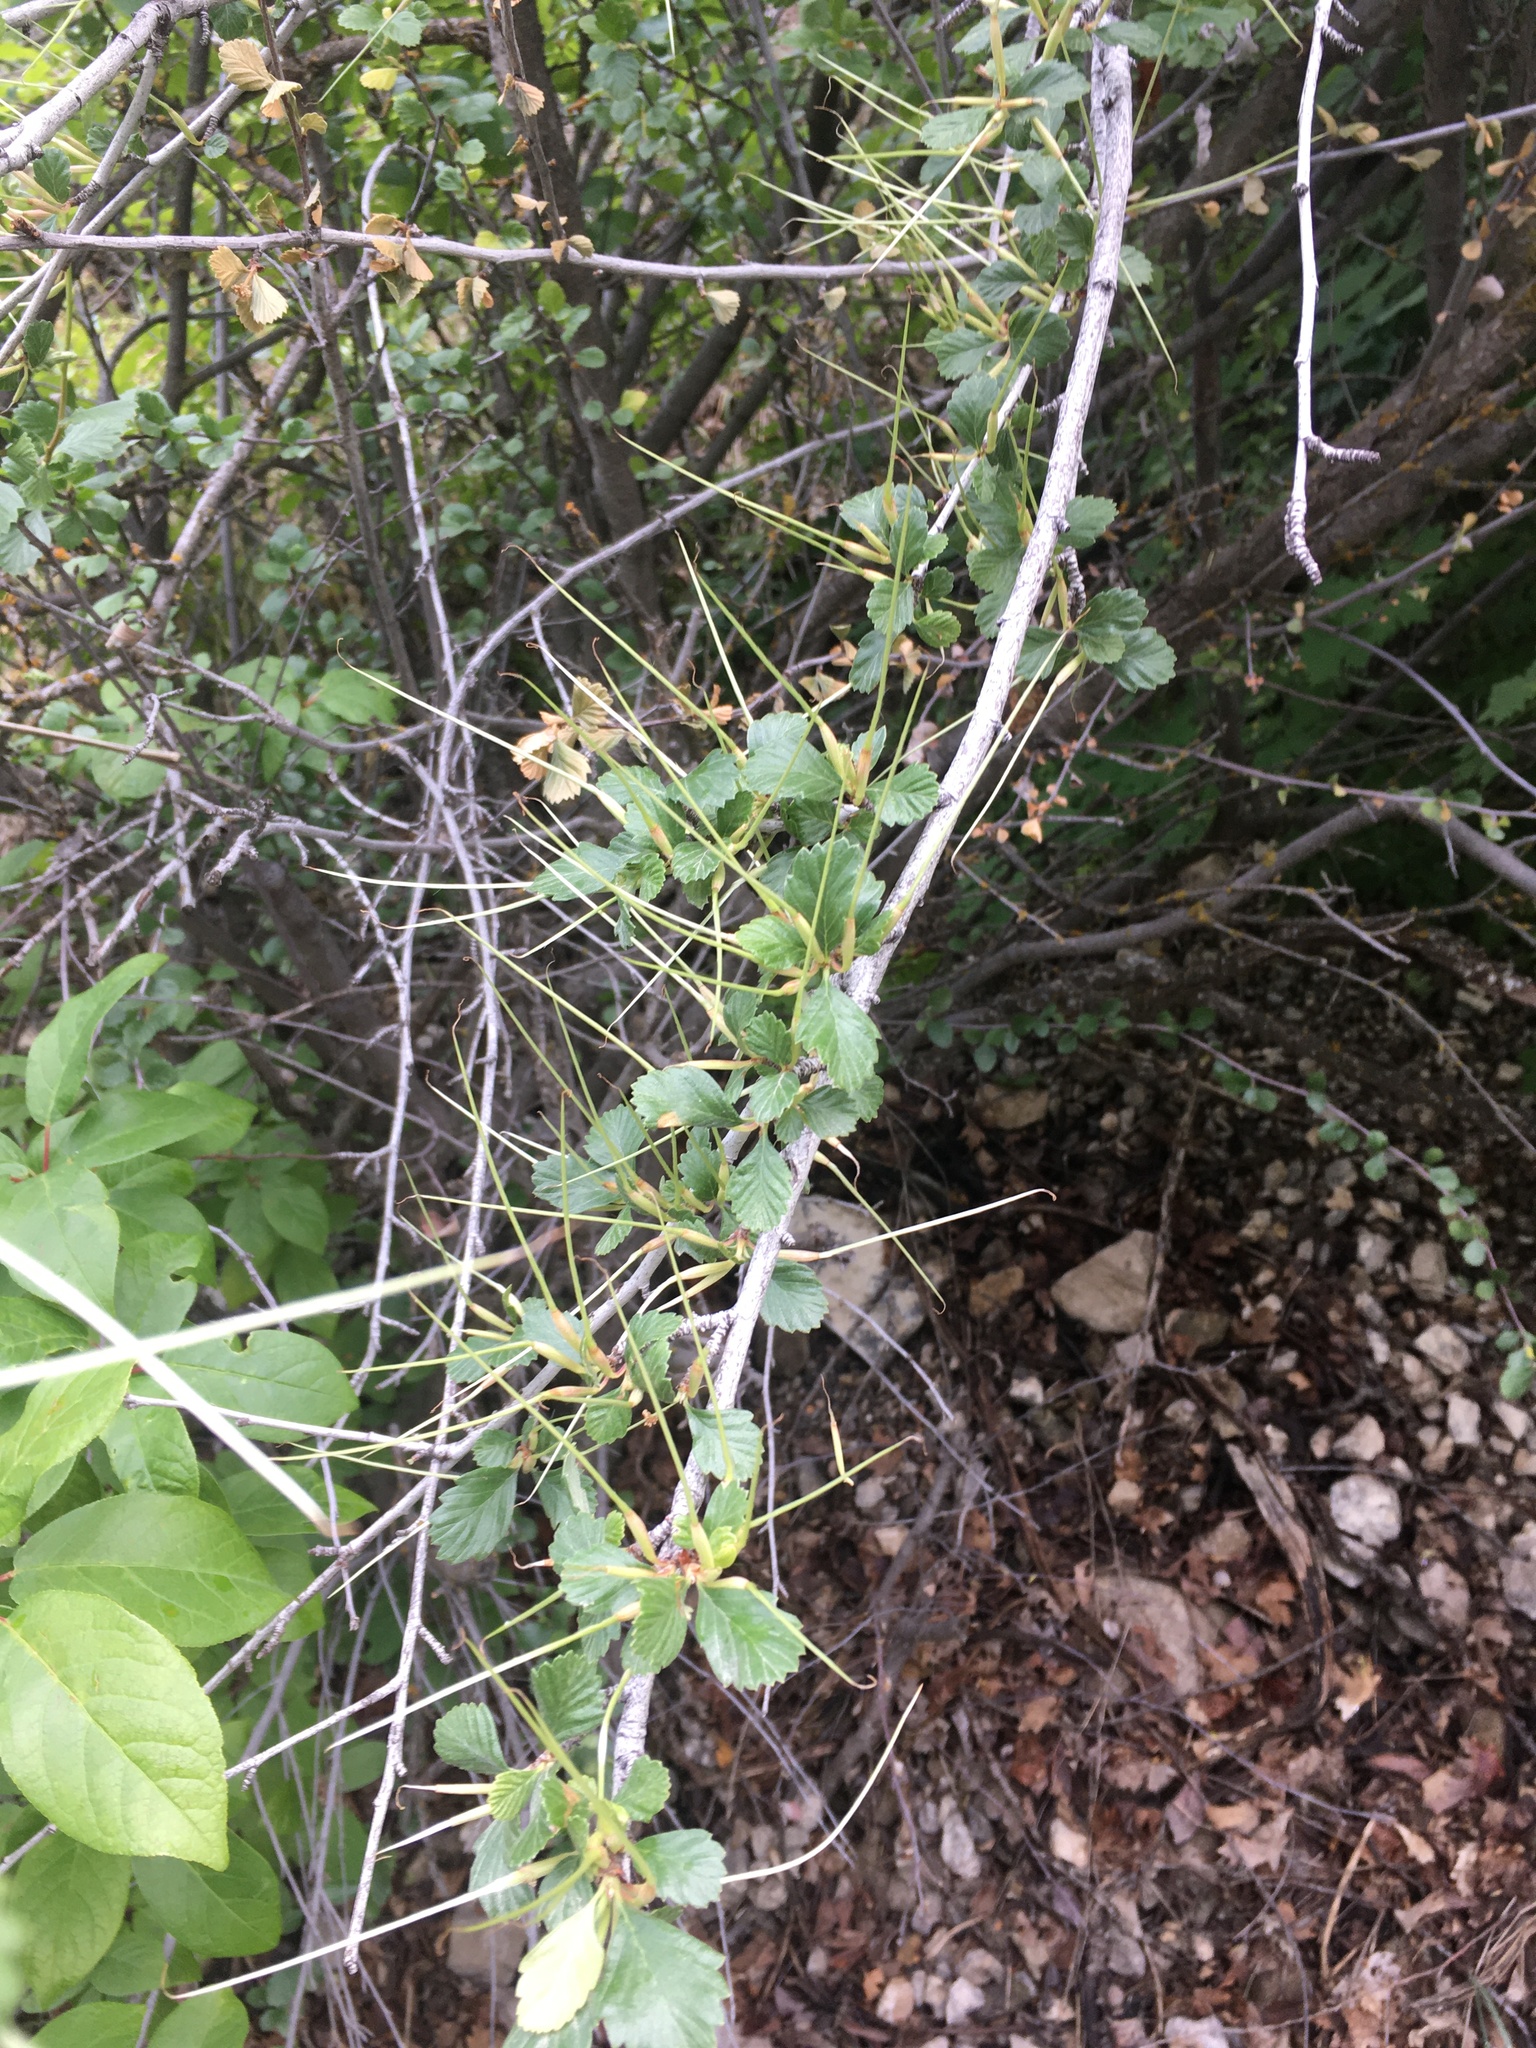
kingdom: Plantae
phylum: Tracheophyta
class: Magnoliopsida
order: Rosales
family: Rosaceae
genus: Cercocarpus
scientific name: Cercocarpus montanus
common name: Alder-leaf cercocarpus
